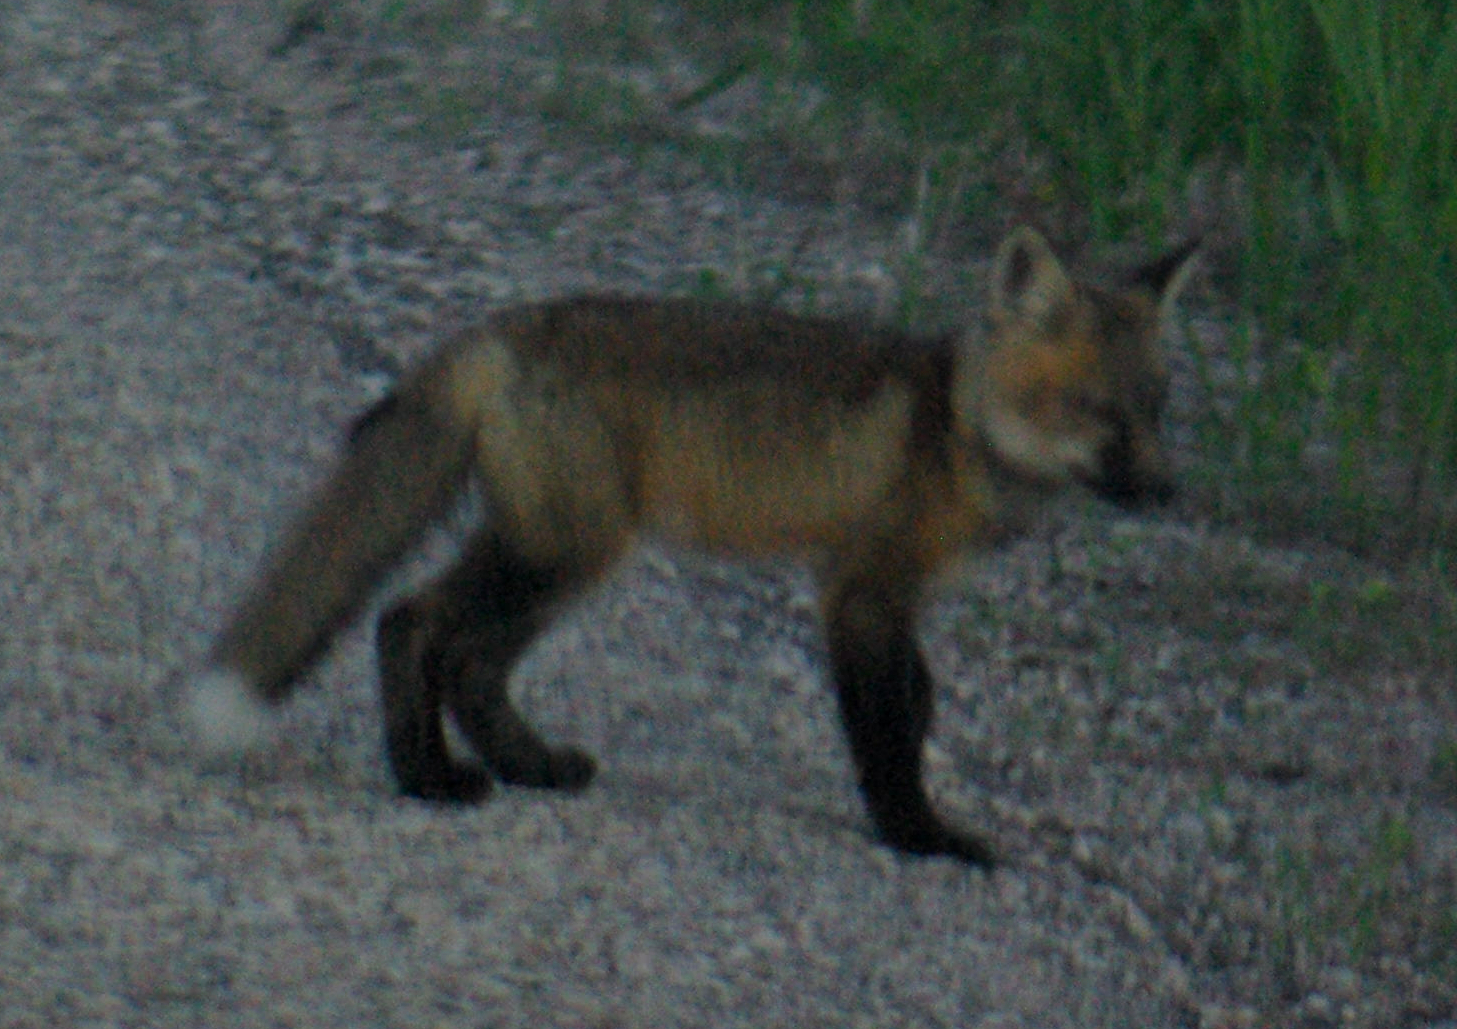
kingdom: Animalia
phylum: Chordata
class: Mammalia
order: Carnivora
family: Canidae
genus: Vulpes
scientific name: Vulpes vulpes
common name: Red fox
